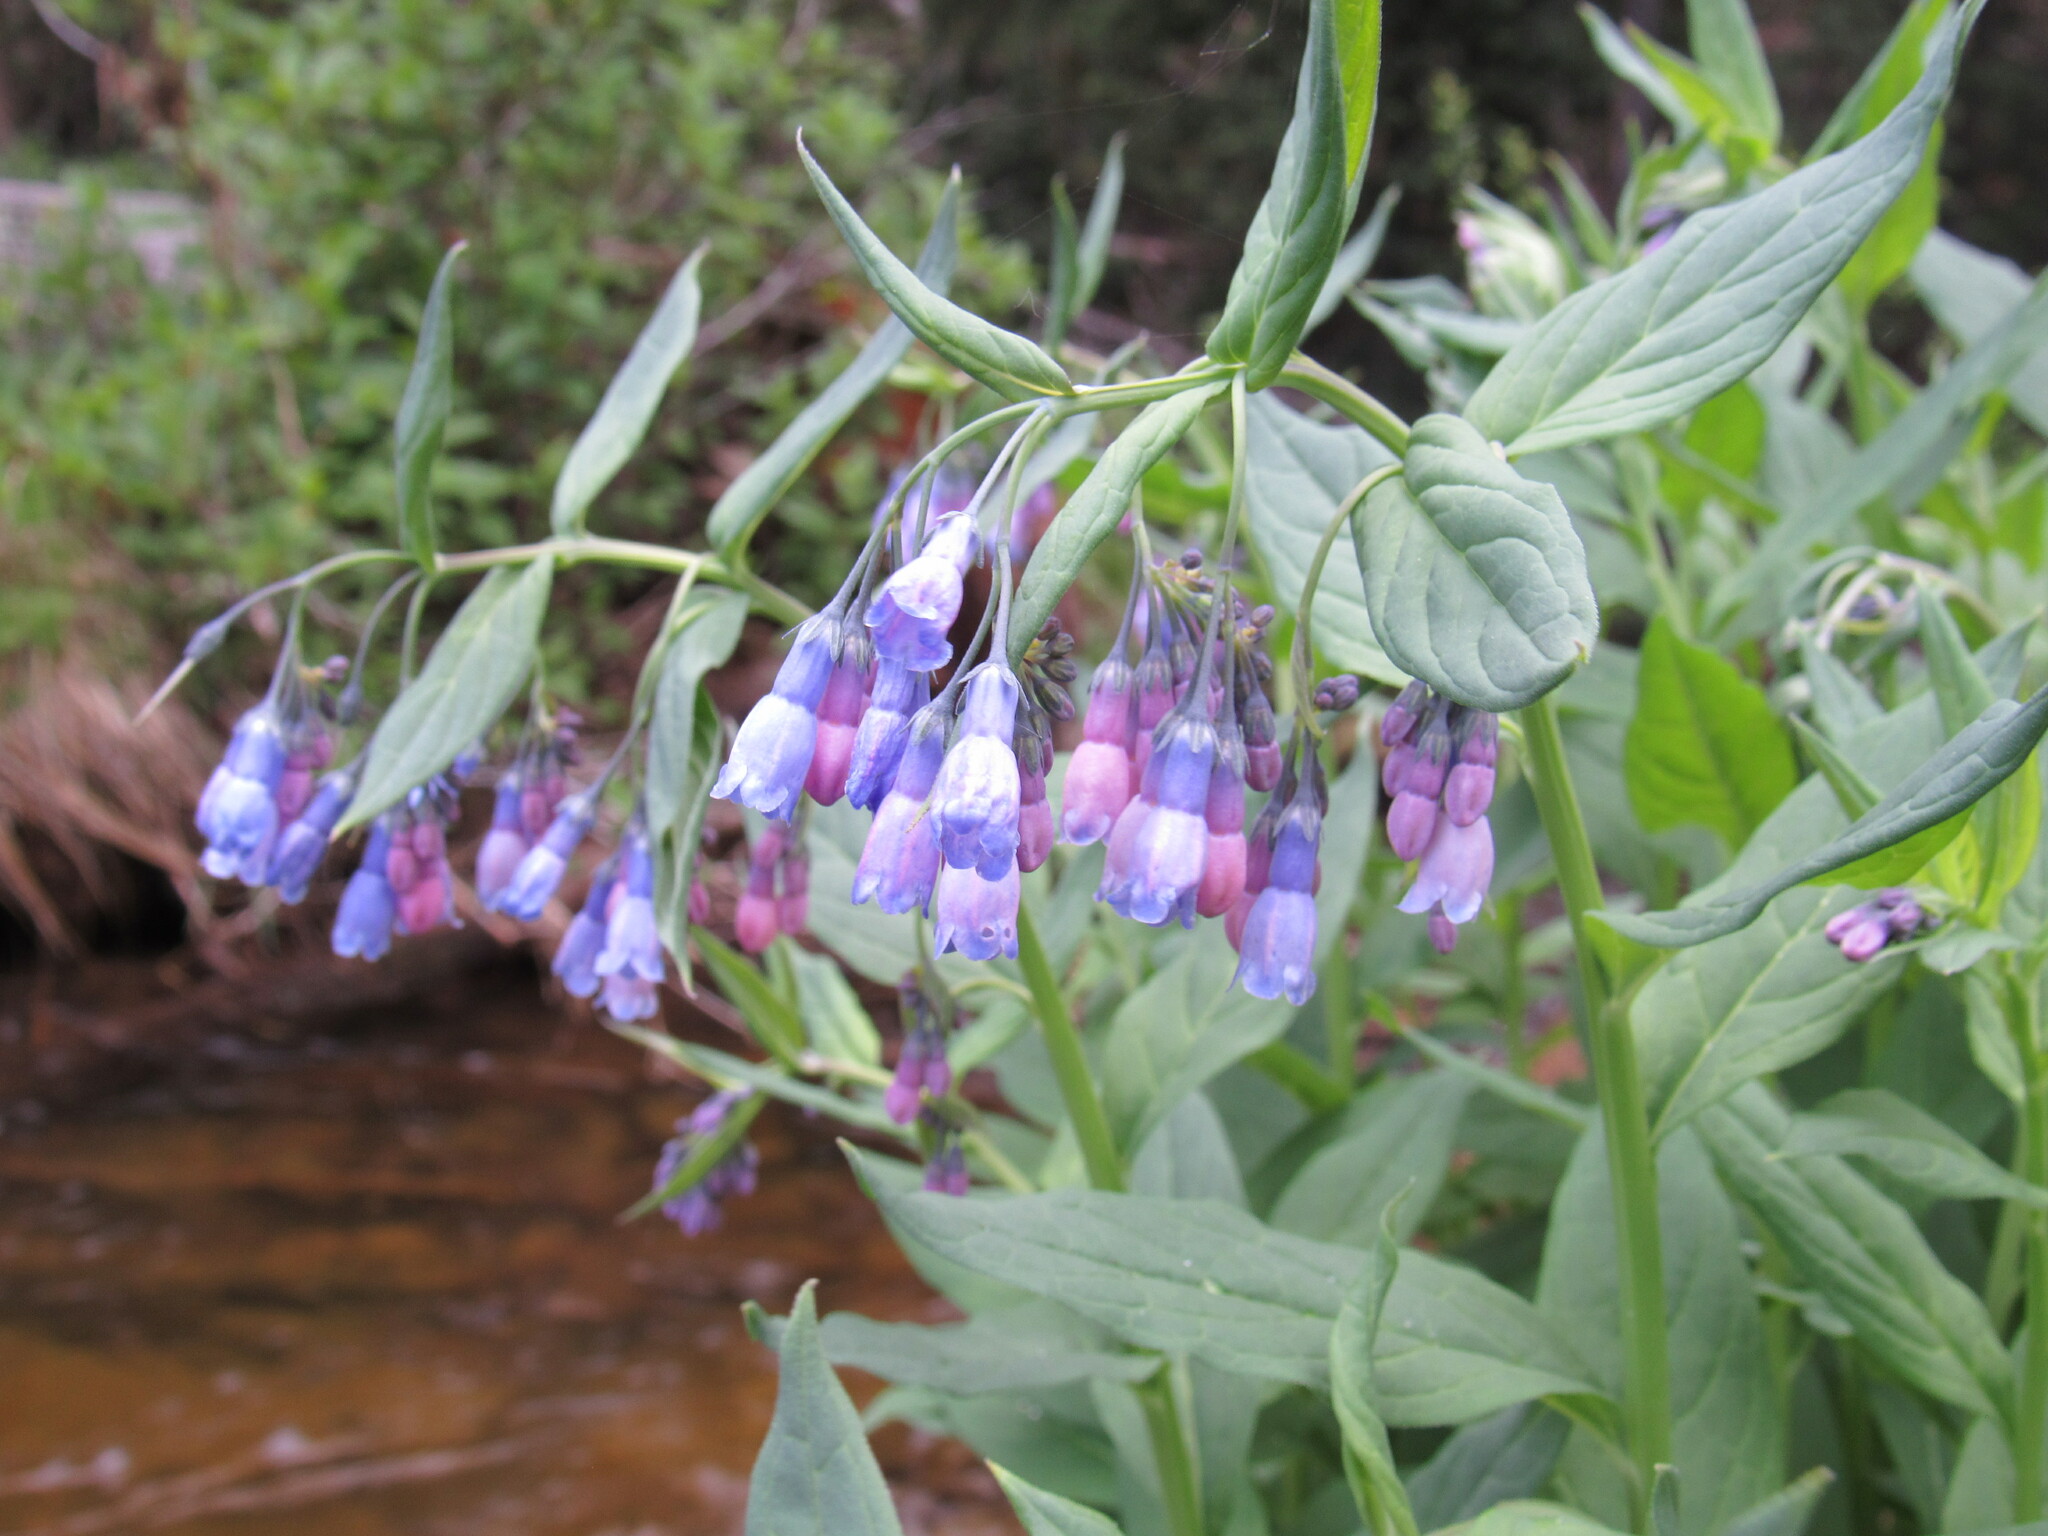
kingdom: Plantae
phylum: Tracheophyta
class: Magnoliopsida
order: Boraginales
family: Boraginaceae
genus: Mertensia
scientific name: Mertensia ciliata
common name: Tall chiming-bells
